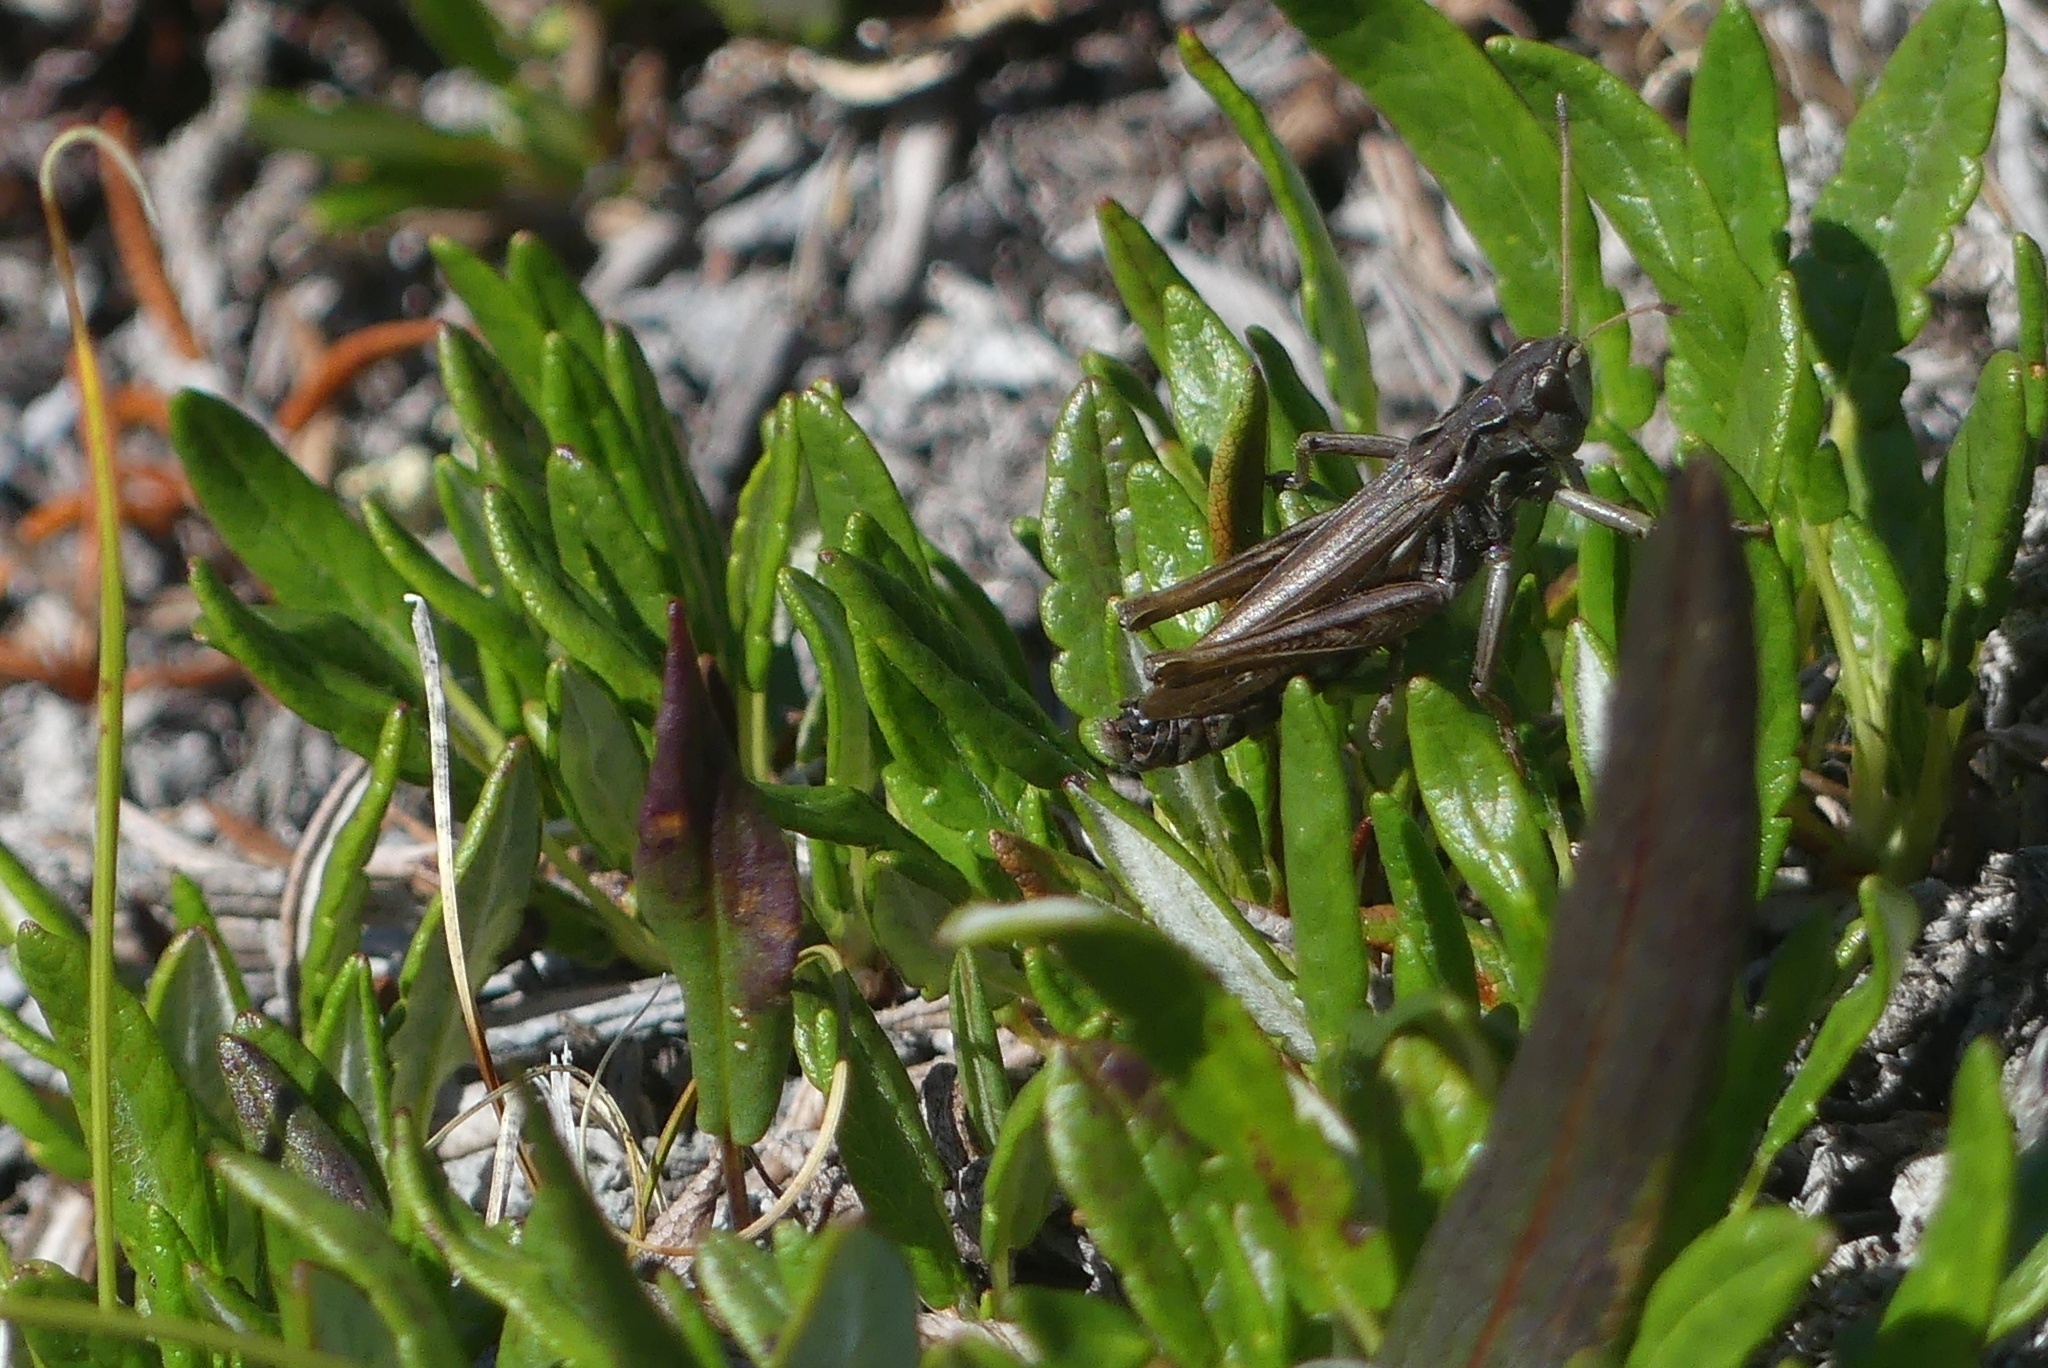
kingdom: Animalia
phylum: Arthropoda
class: Insecta
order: Orthoptera
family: Acrididae
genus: Aeropedellus
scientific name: Aeropedellus clavatus
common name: Clubhorned grasshopper
